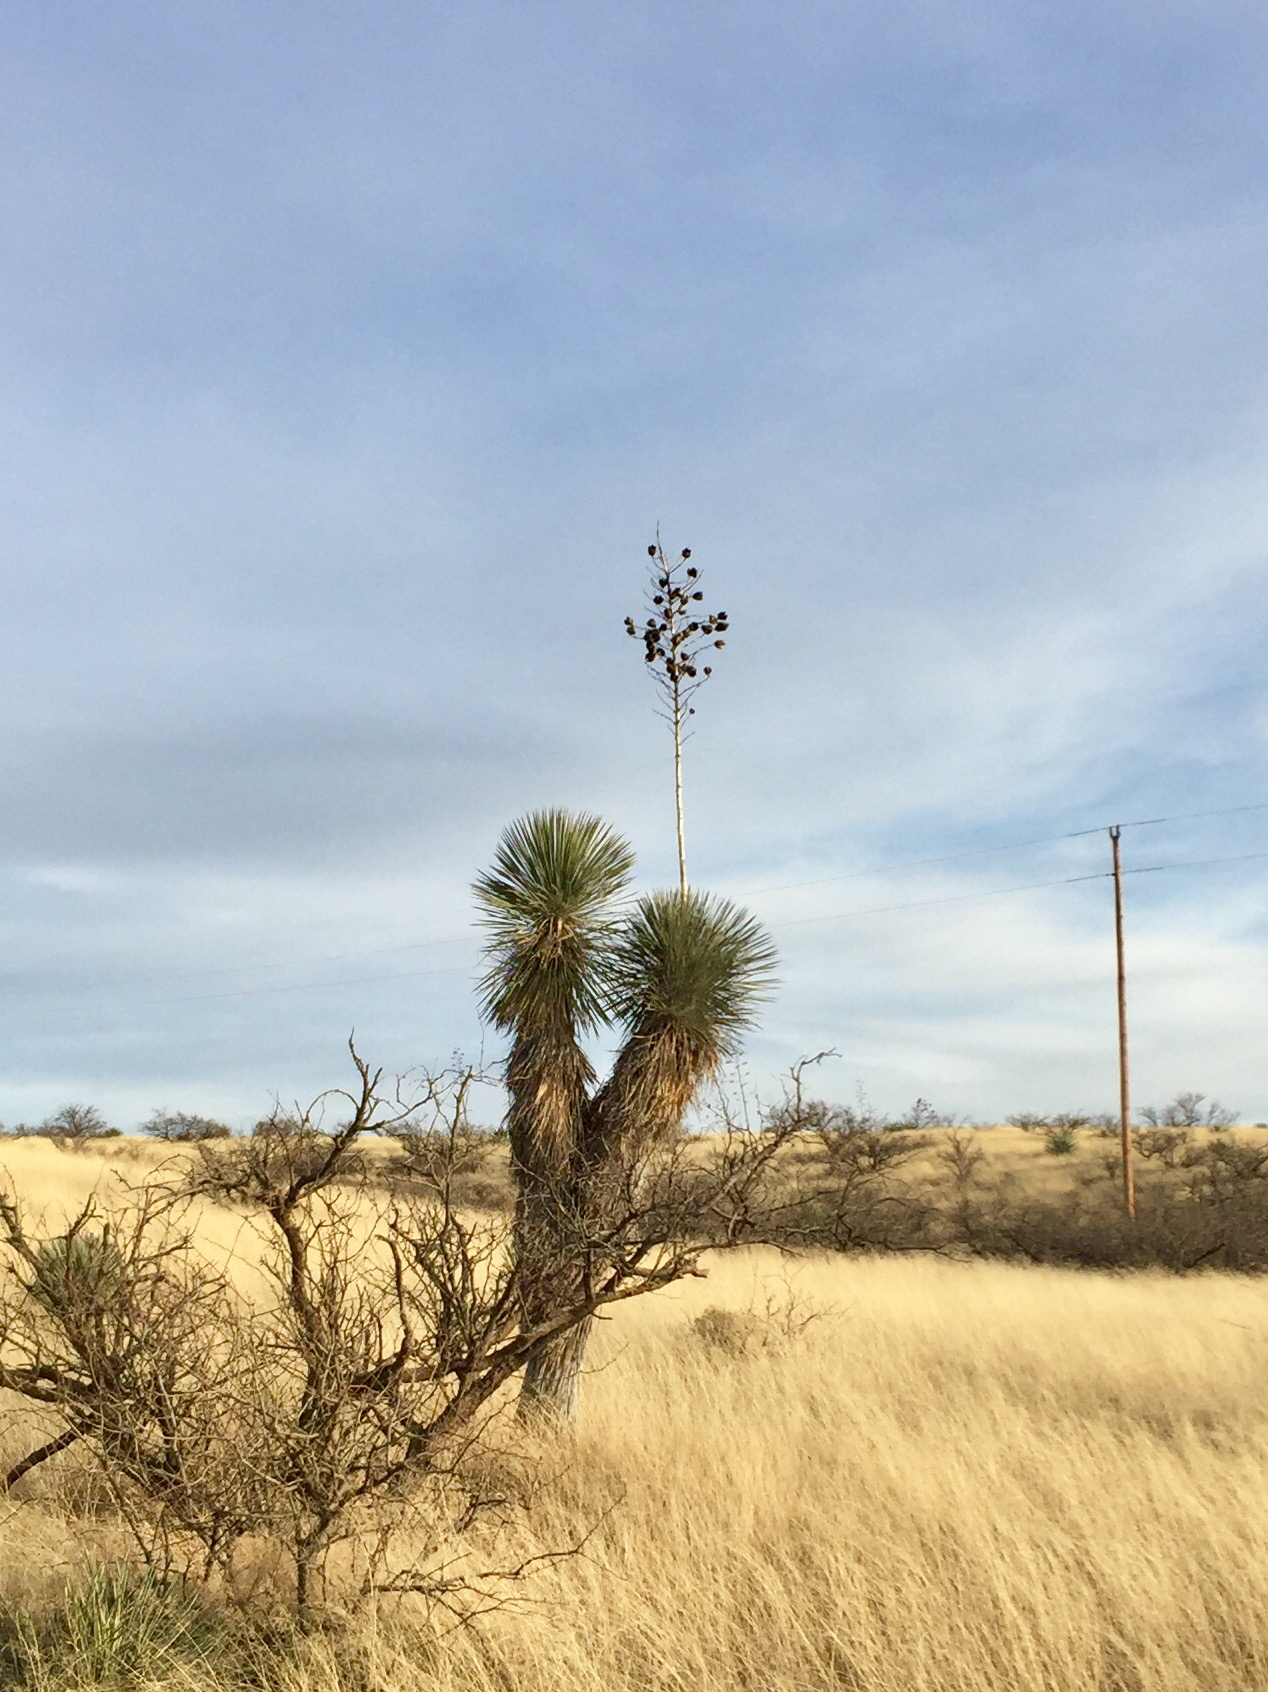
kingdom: Plantae
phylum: Tracheophyta
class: Liliopsida
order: Asparagales
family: Asparagaceae
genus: Yucca
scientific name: Yucca elata
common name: Palmella
